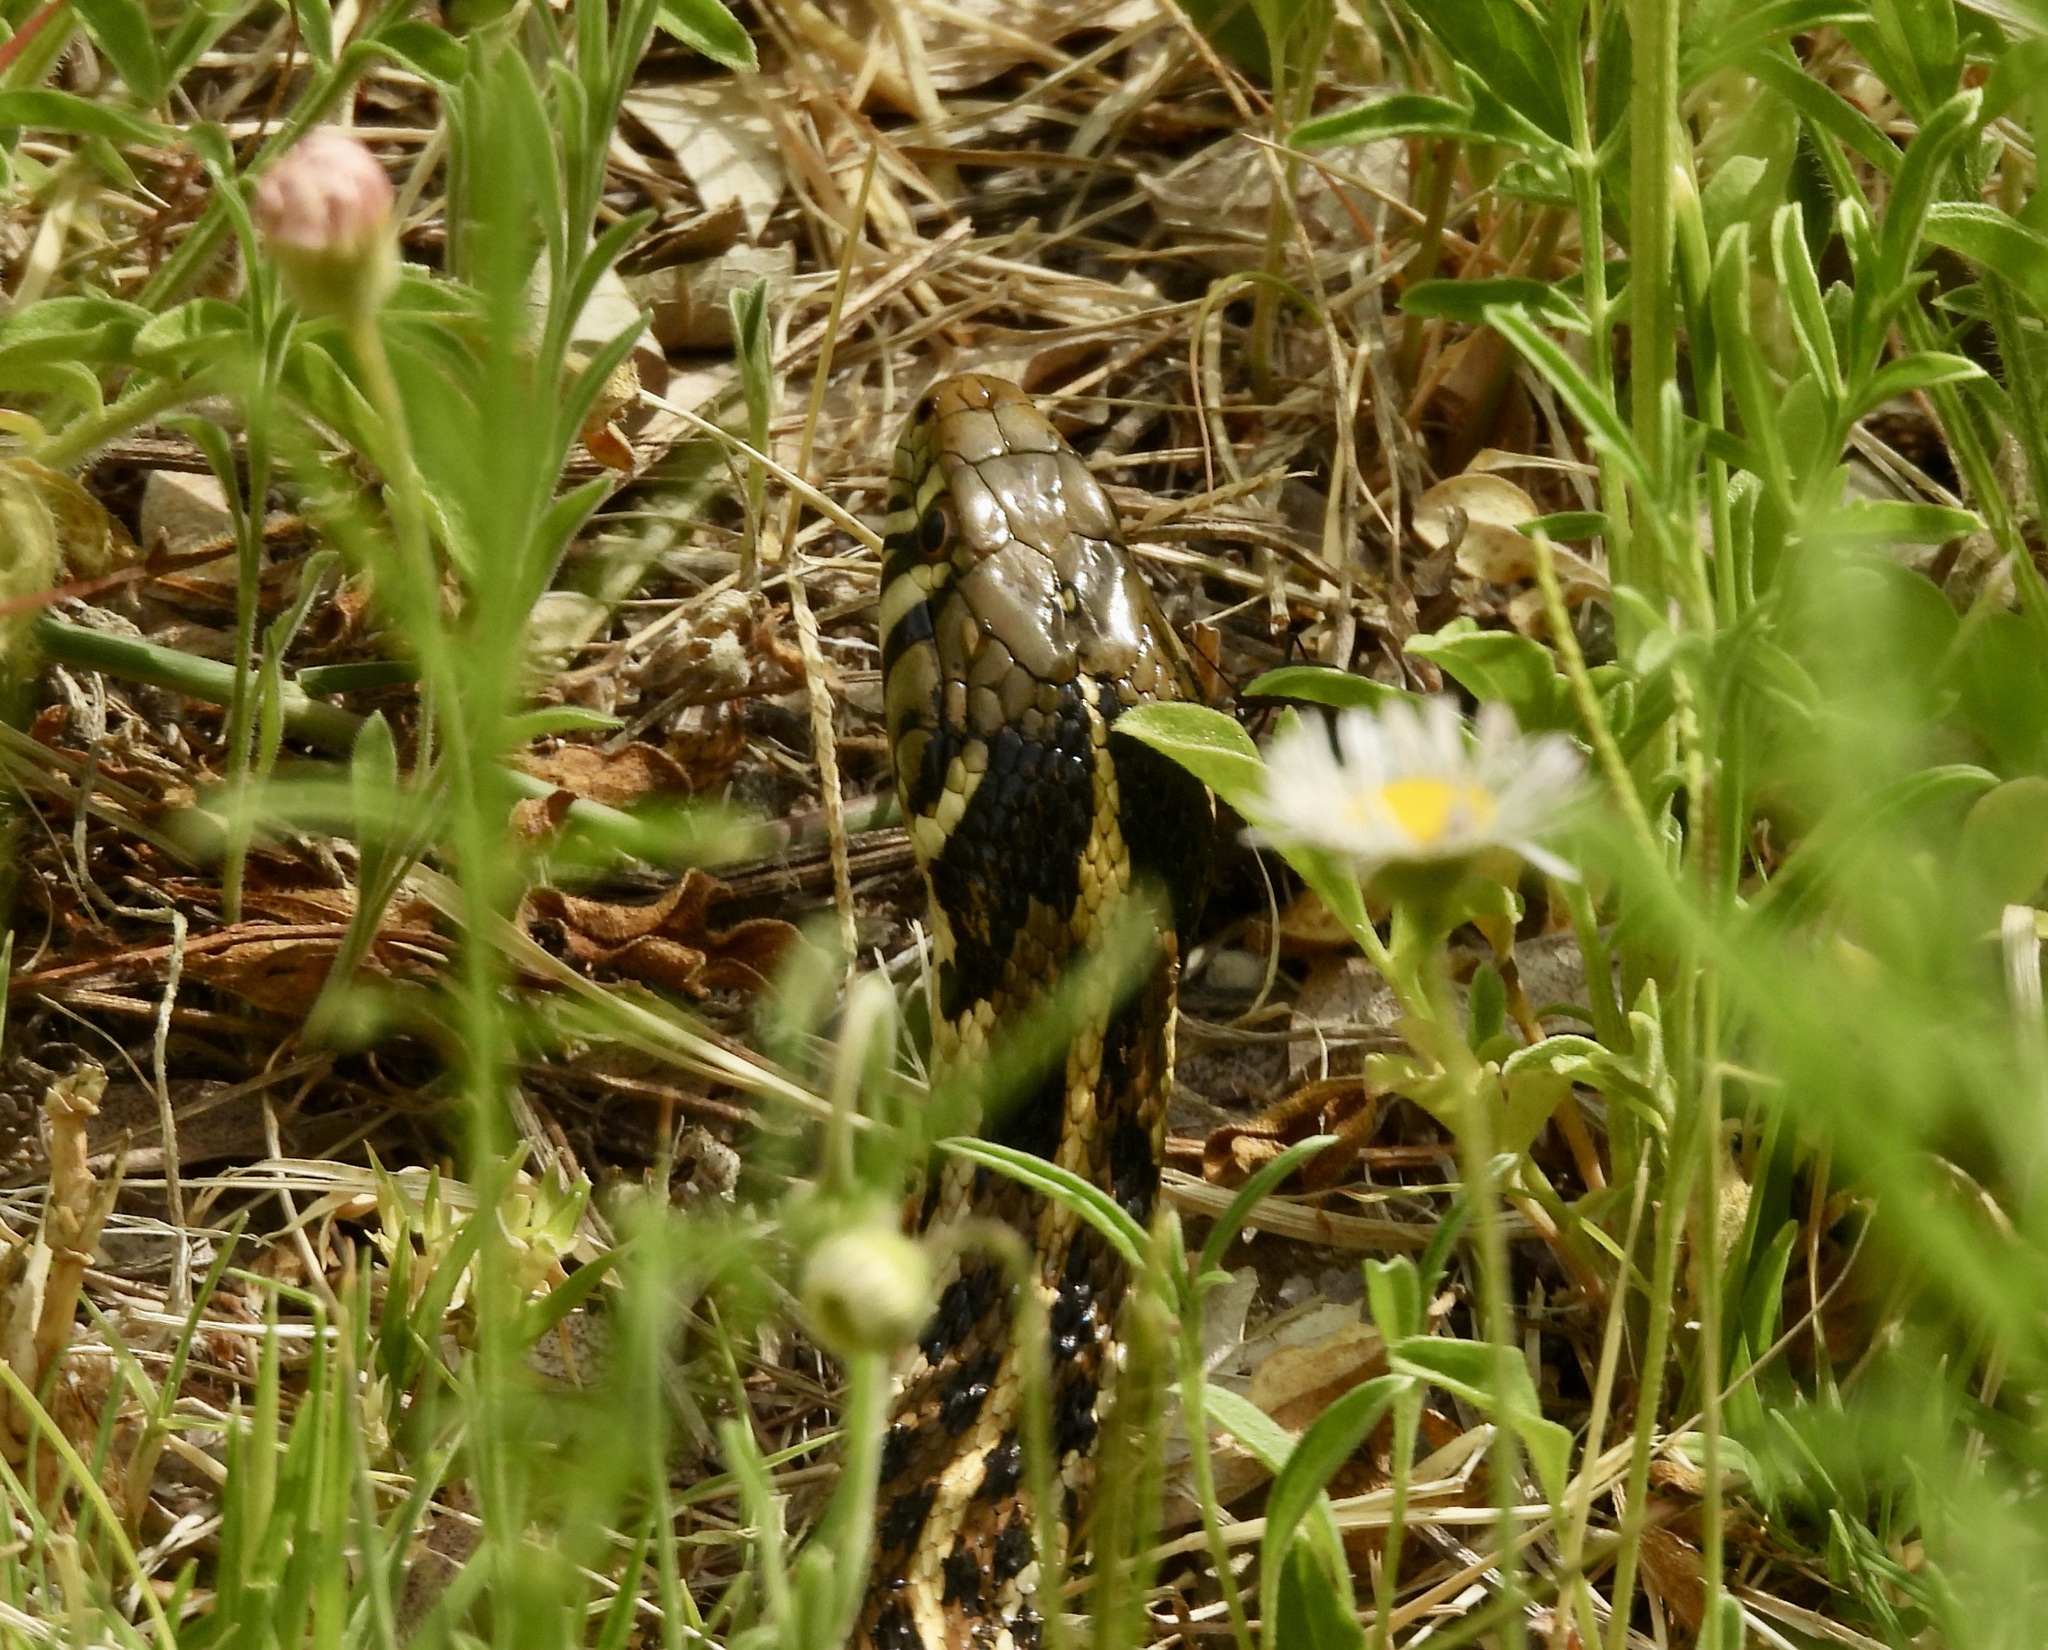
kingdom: Animalia
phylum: Chordata
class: Squamata
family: Colubridae
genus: Thamnophis
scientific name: Thamnophis marcianus
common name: Checkered garter snake
